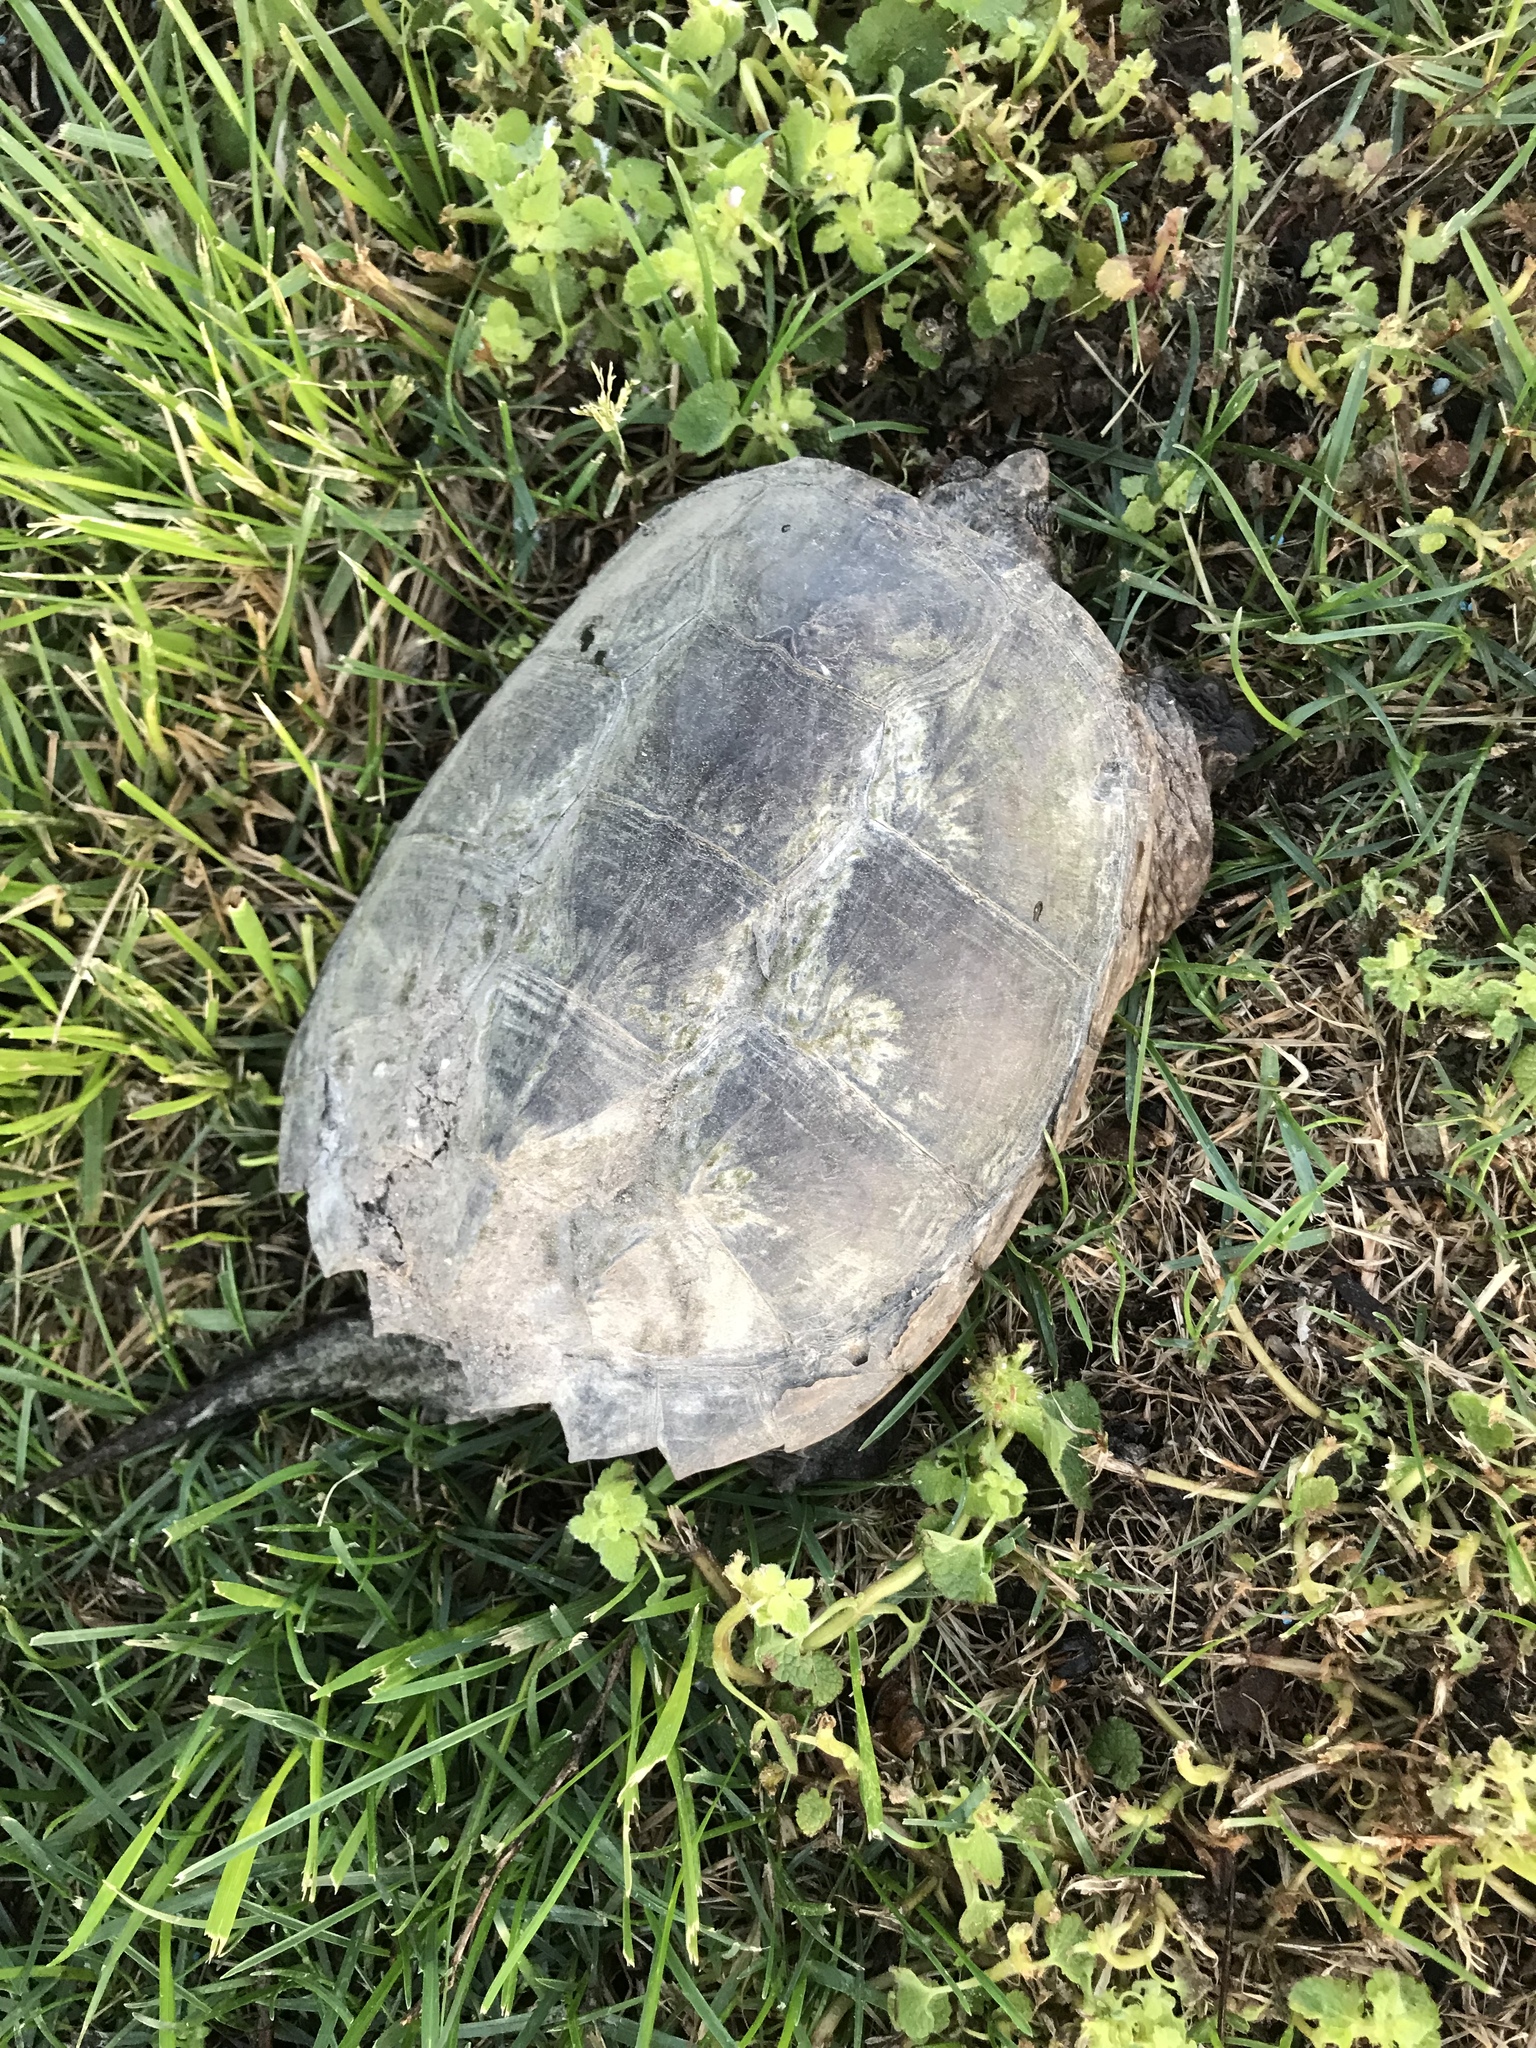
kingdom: Animalia
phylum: Chordata
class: Testudines
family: Chelydridae
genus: Chelydra
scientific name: Chelydra serpentina
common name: Common snapping turtle
